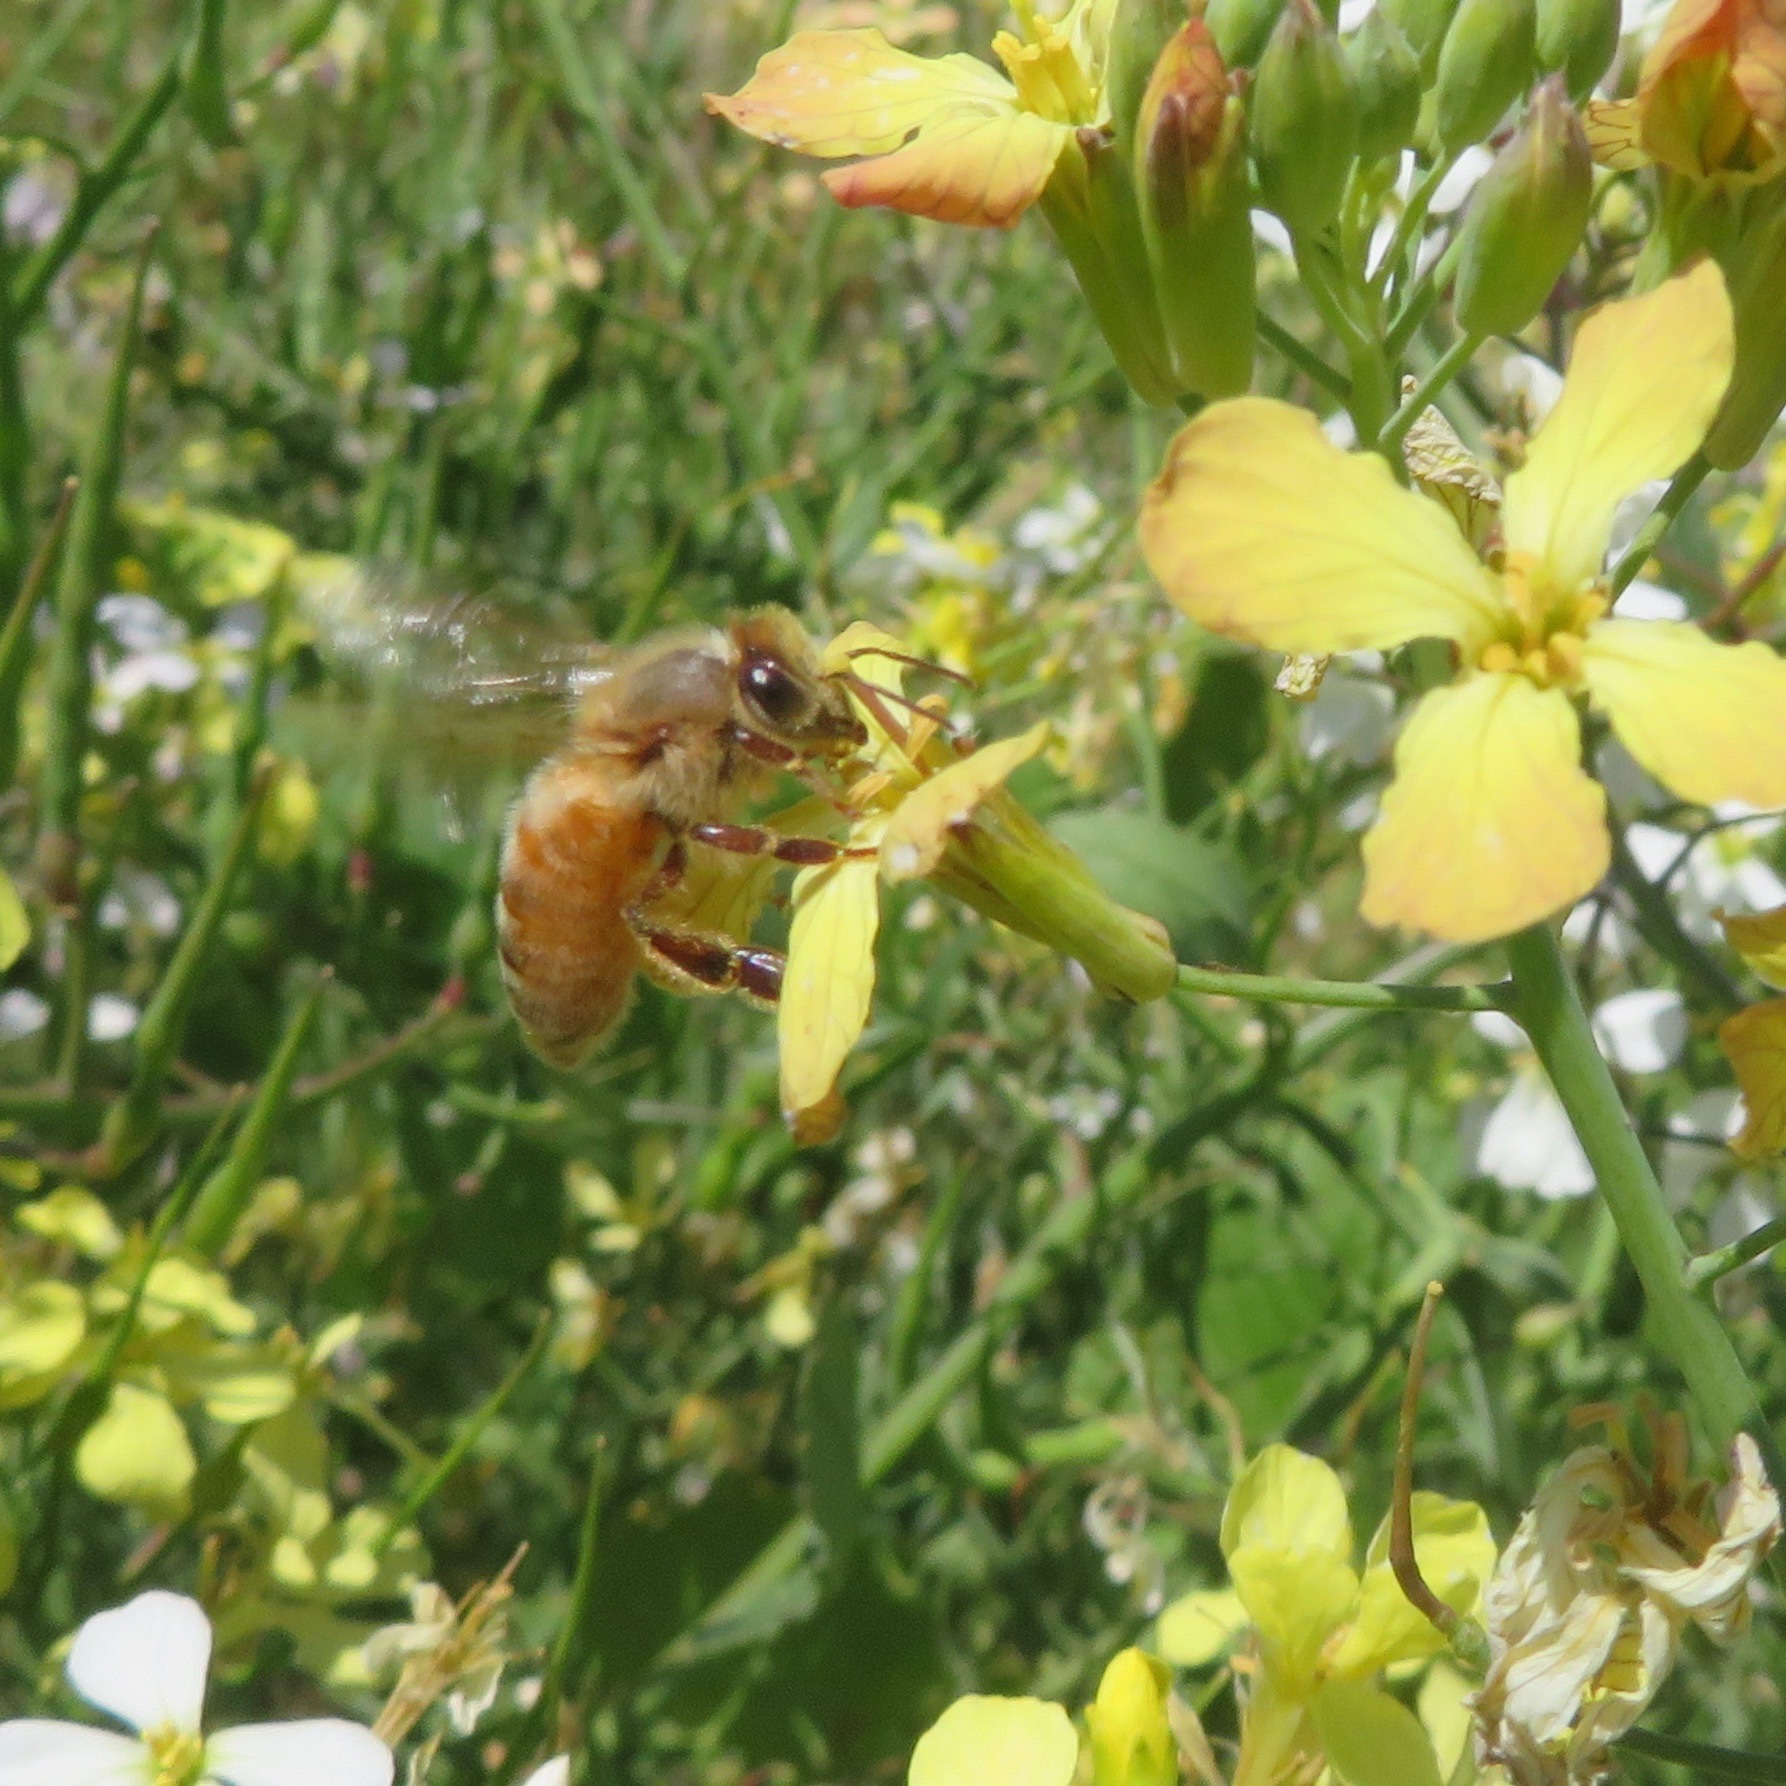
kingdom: Animalia
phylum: Arthropoda
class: Insecta
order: Hymenoptera
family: Apidae
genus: Apis
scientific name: Apis mellifera
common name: Honey bee
